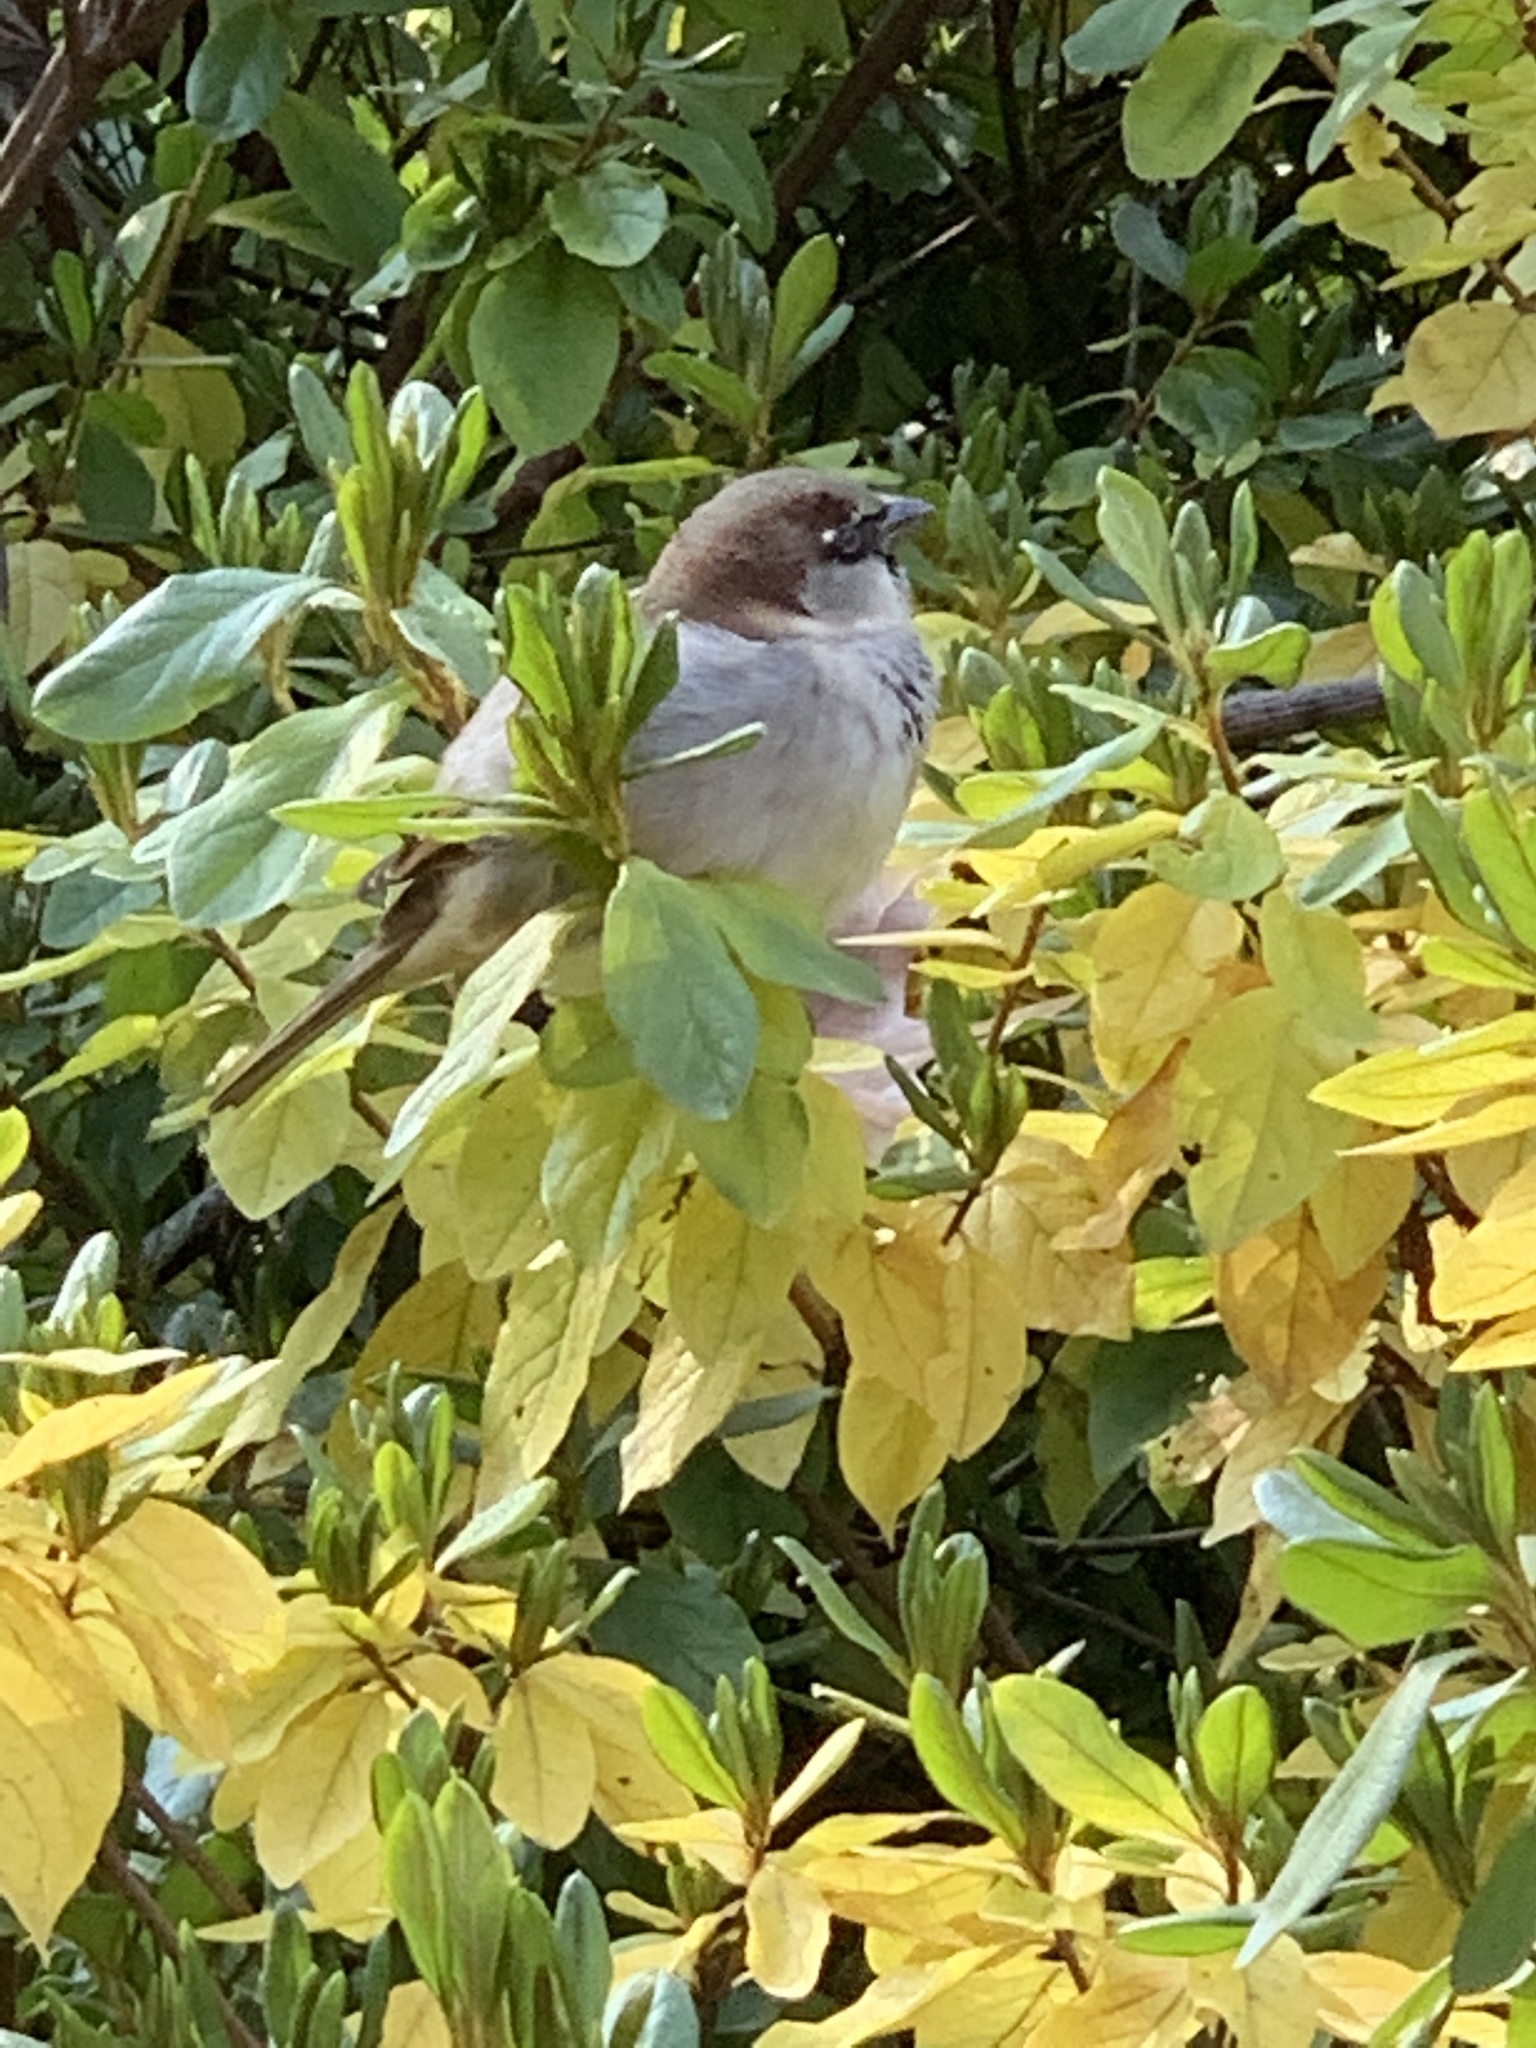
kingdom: Animalia
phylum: Chordata
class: Aves
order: Passeriformes
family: Passeridae
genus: Passer
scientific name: Passer domesticus
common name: House sparrow
